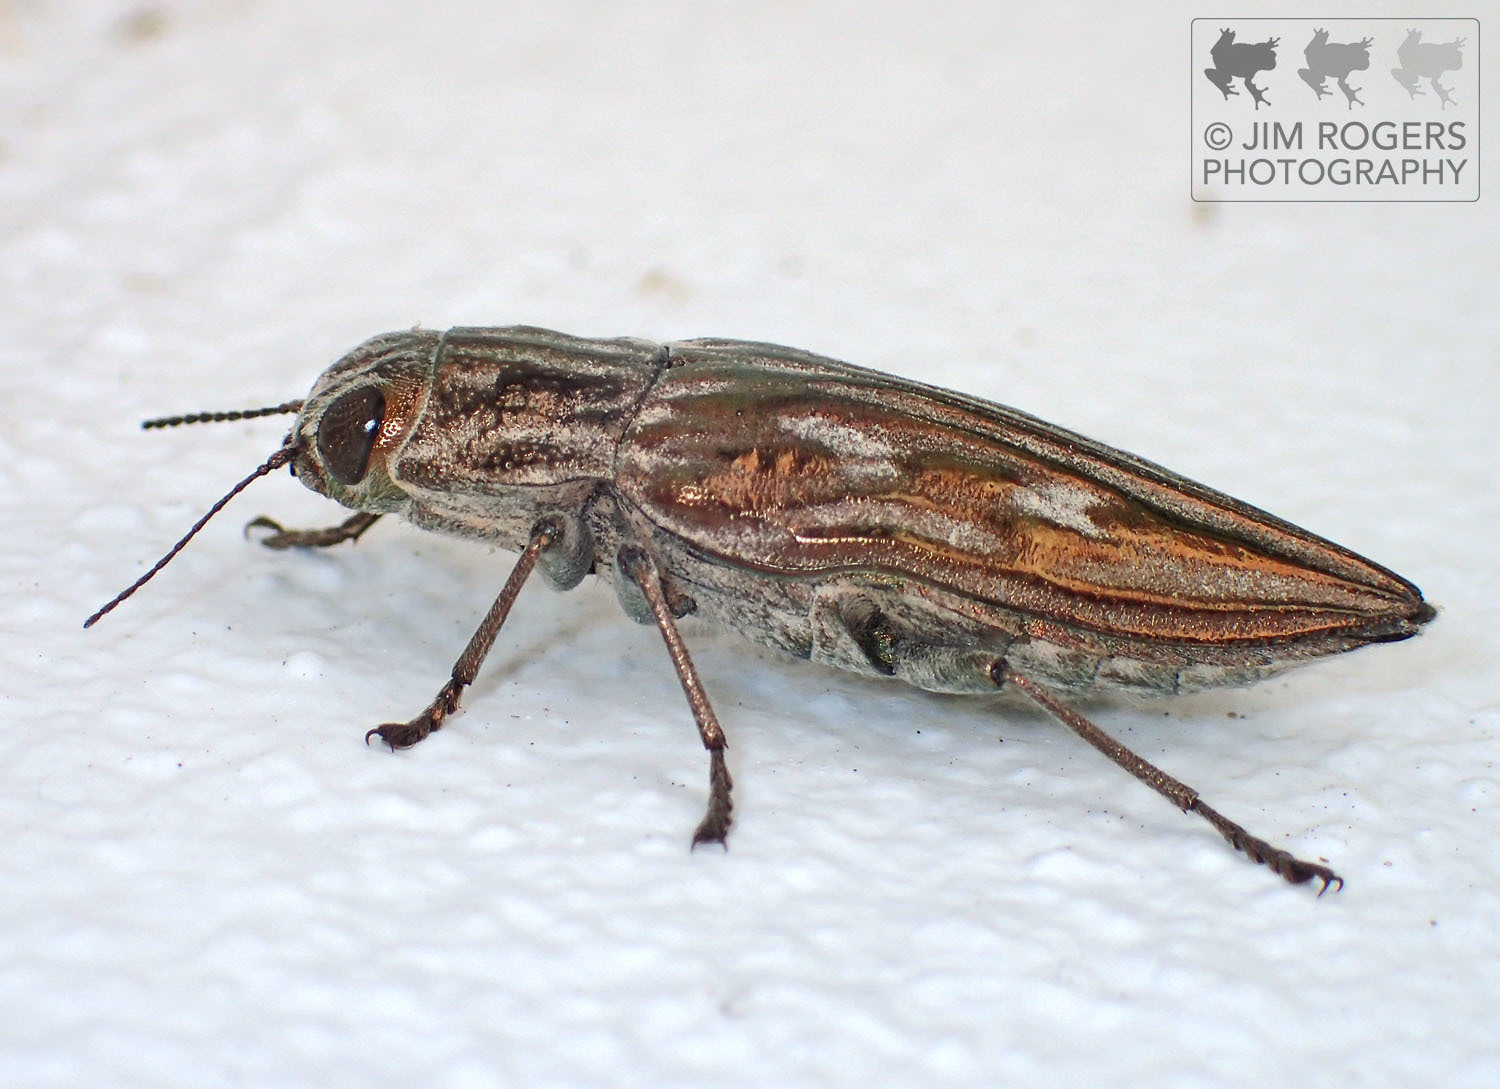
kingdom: Animalia
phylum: Arthropoda
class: Insecta
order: Coleoptera
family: Buprestidae
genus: Chalcophora
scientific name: Chalcophora georgiana
